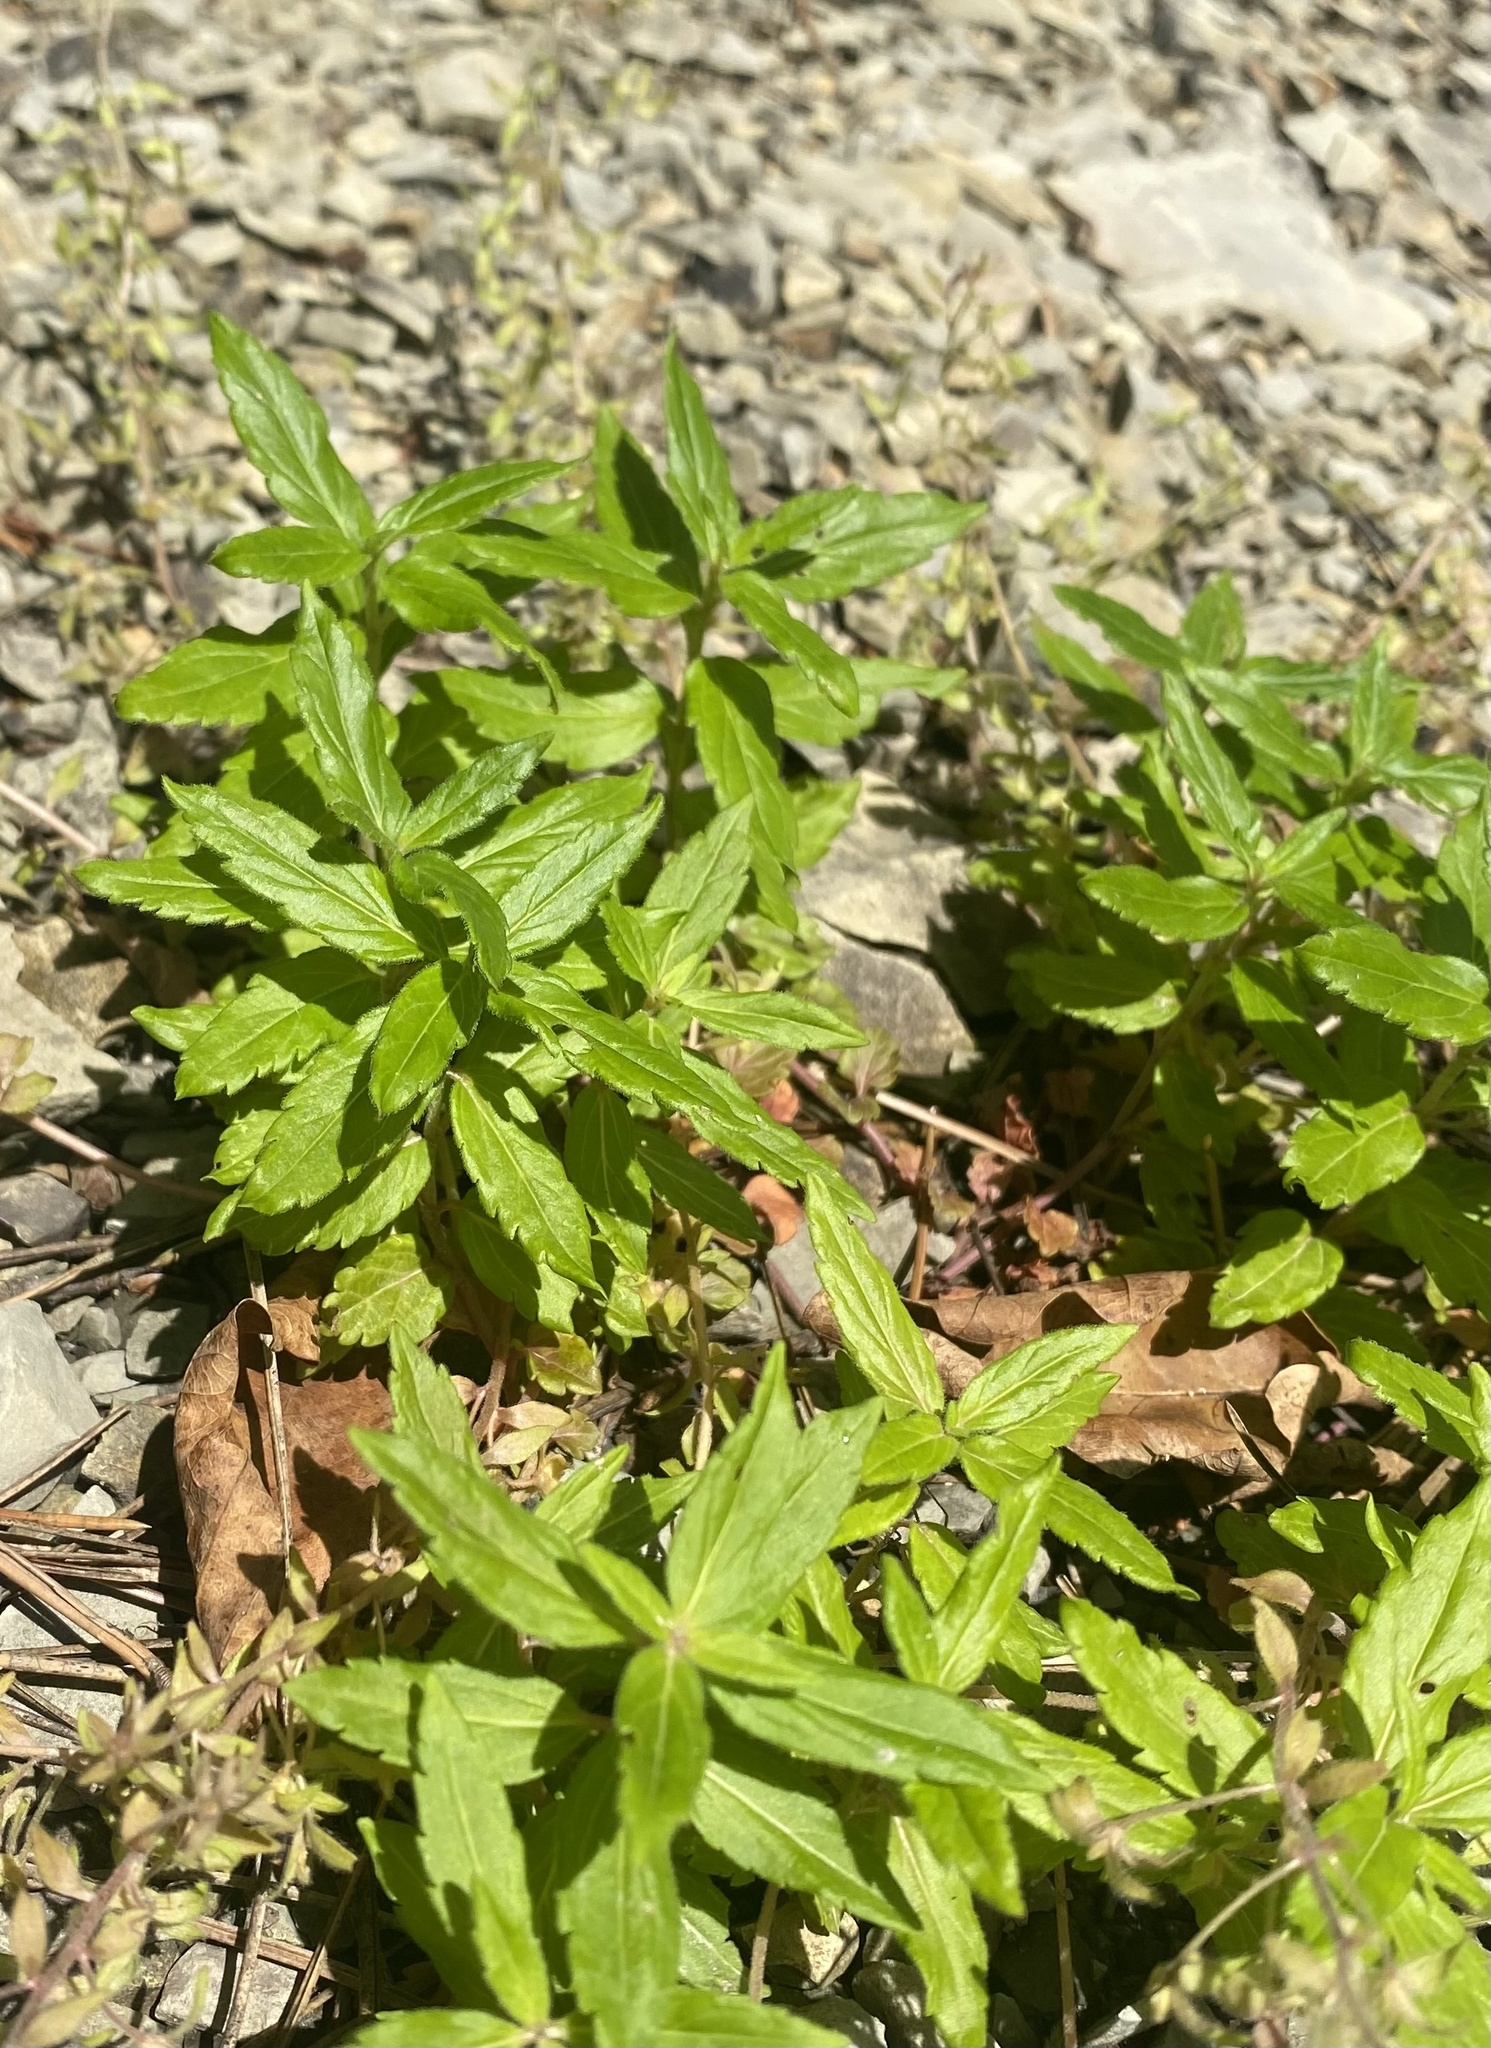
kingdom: Plantae
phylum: Tracheophyta
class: Magnoliopsida
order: Lamiales
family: Plantaginaceae
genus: Veronica
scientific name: Veronica
